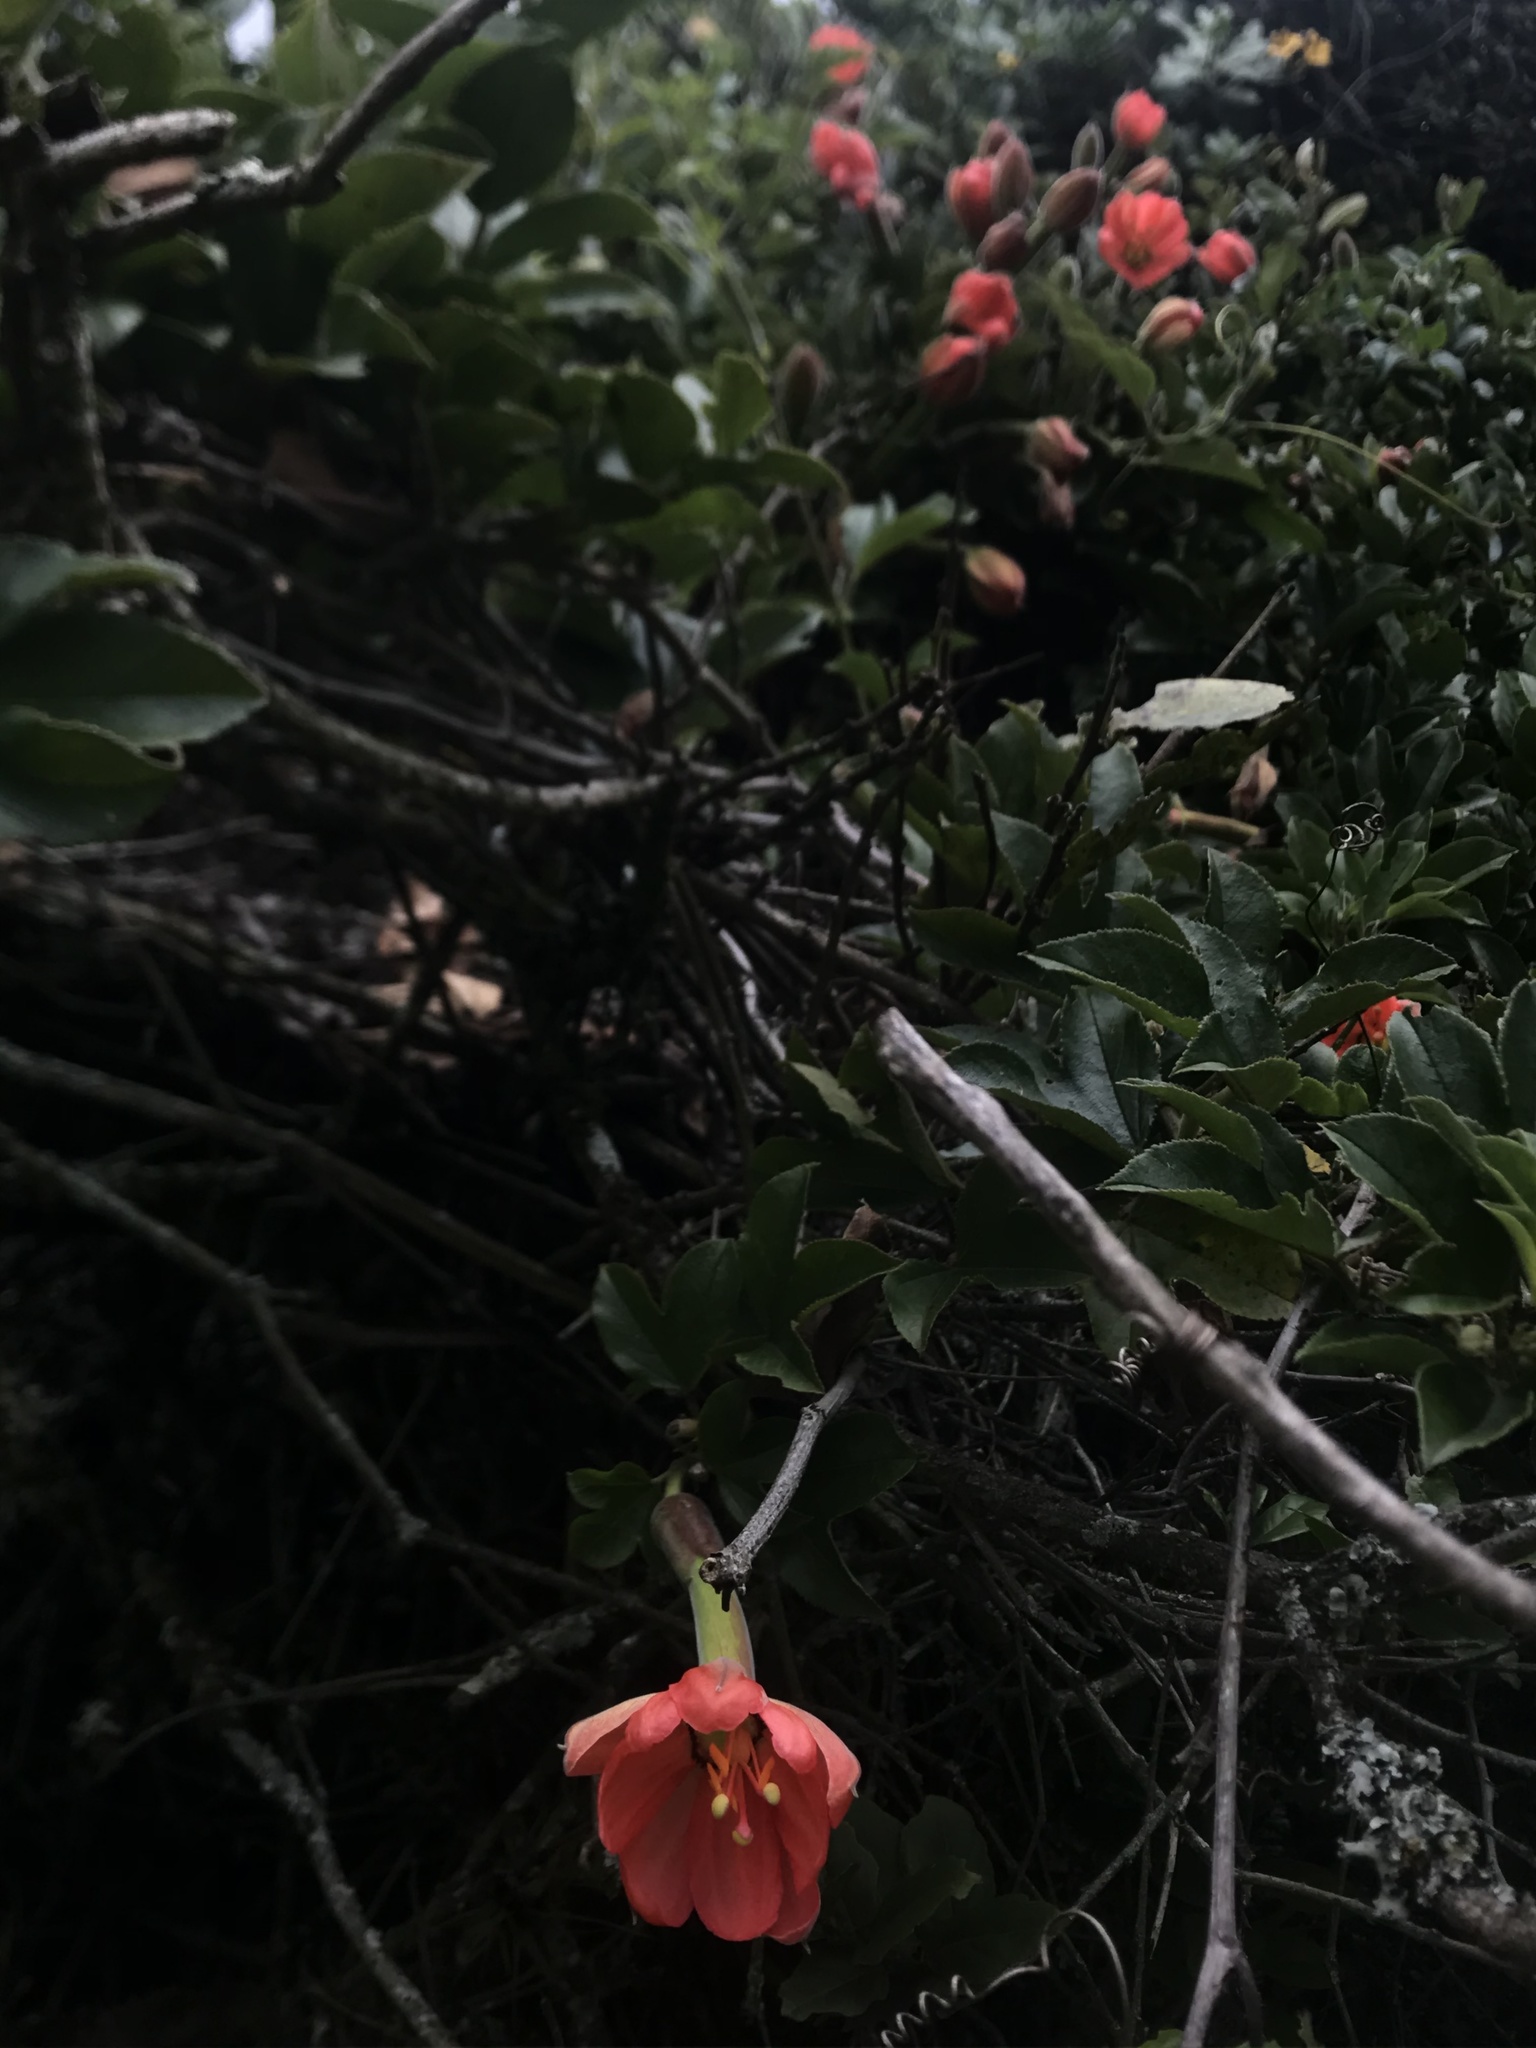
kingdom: Plantae
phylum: Tracheophyta
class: Magnoliopsida
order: Malpighiales
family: Passifloraceae
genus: Passiflora
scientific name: Passiflora mixta
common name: Passion flower
